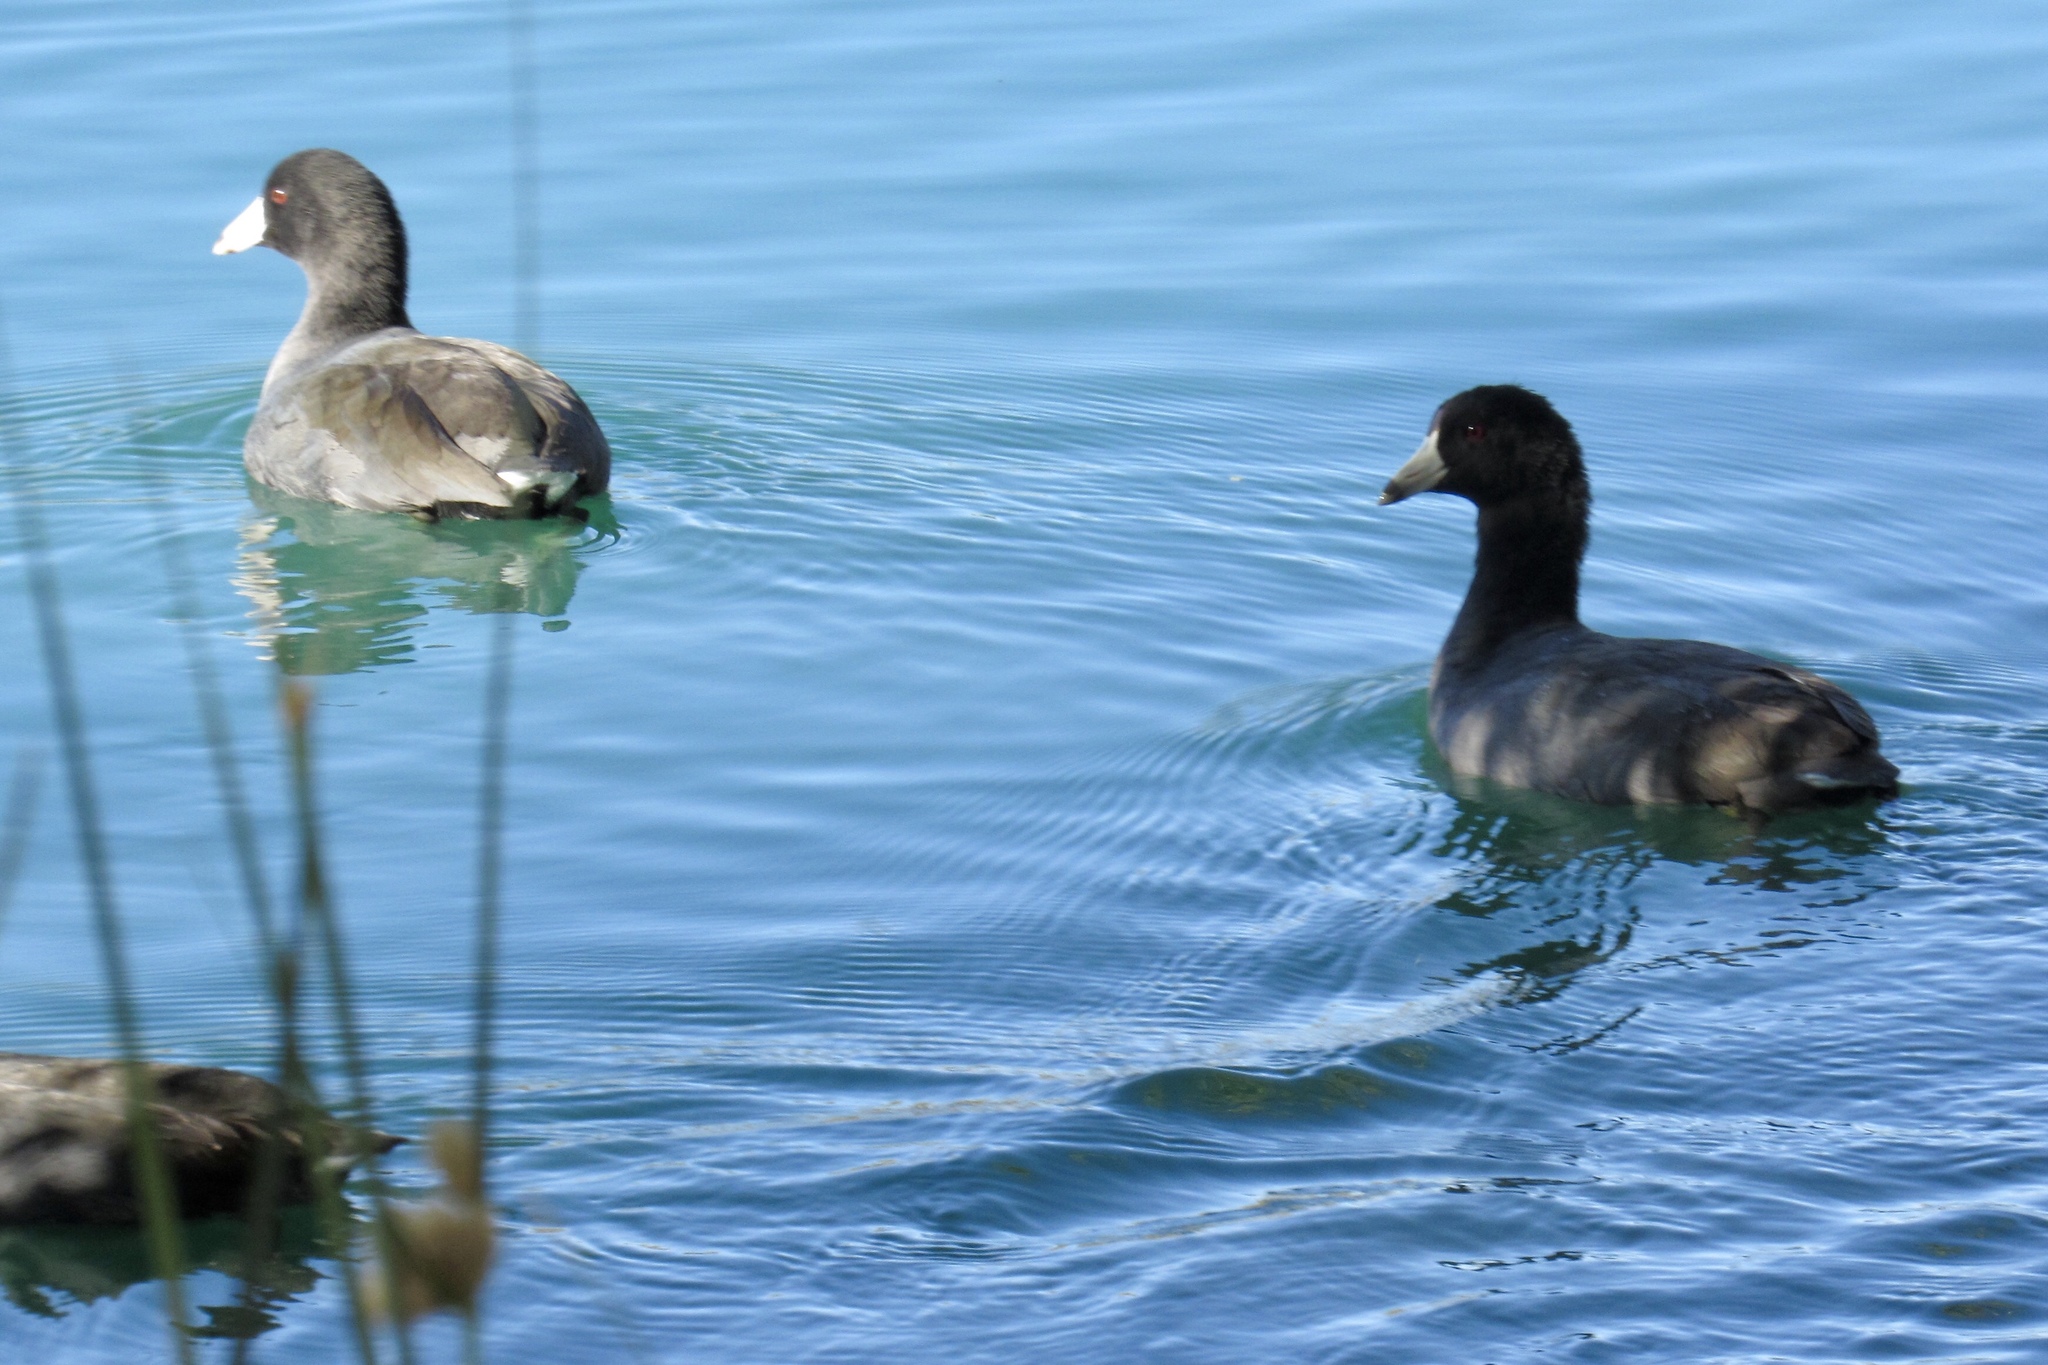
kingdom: Animalia
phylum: Chordata
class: Aves
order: Gruiformes
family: Rallidae
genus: Fulica
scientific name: Fulica americana
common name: American coot
